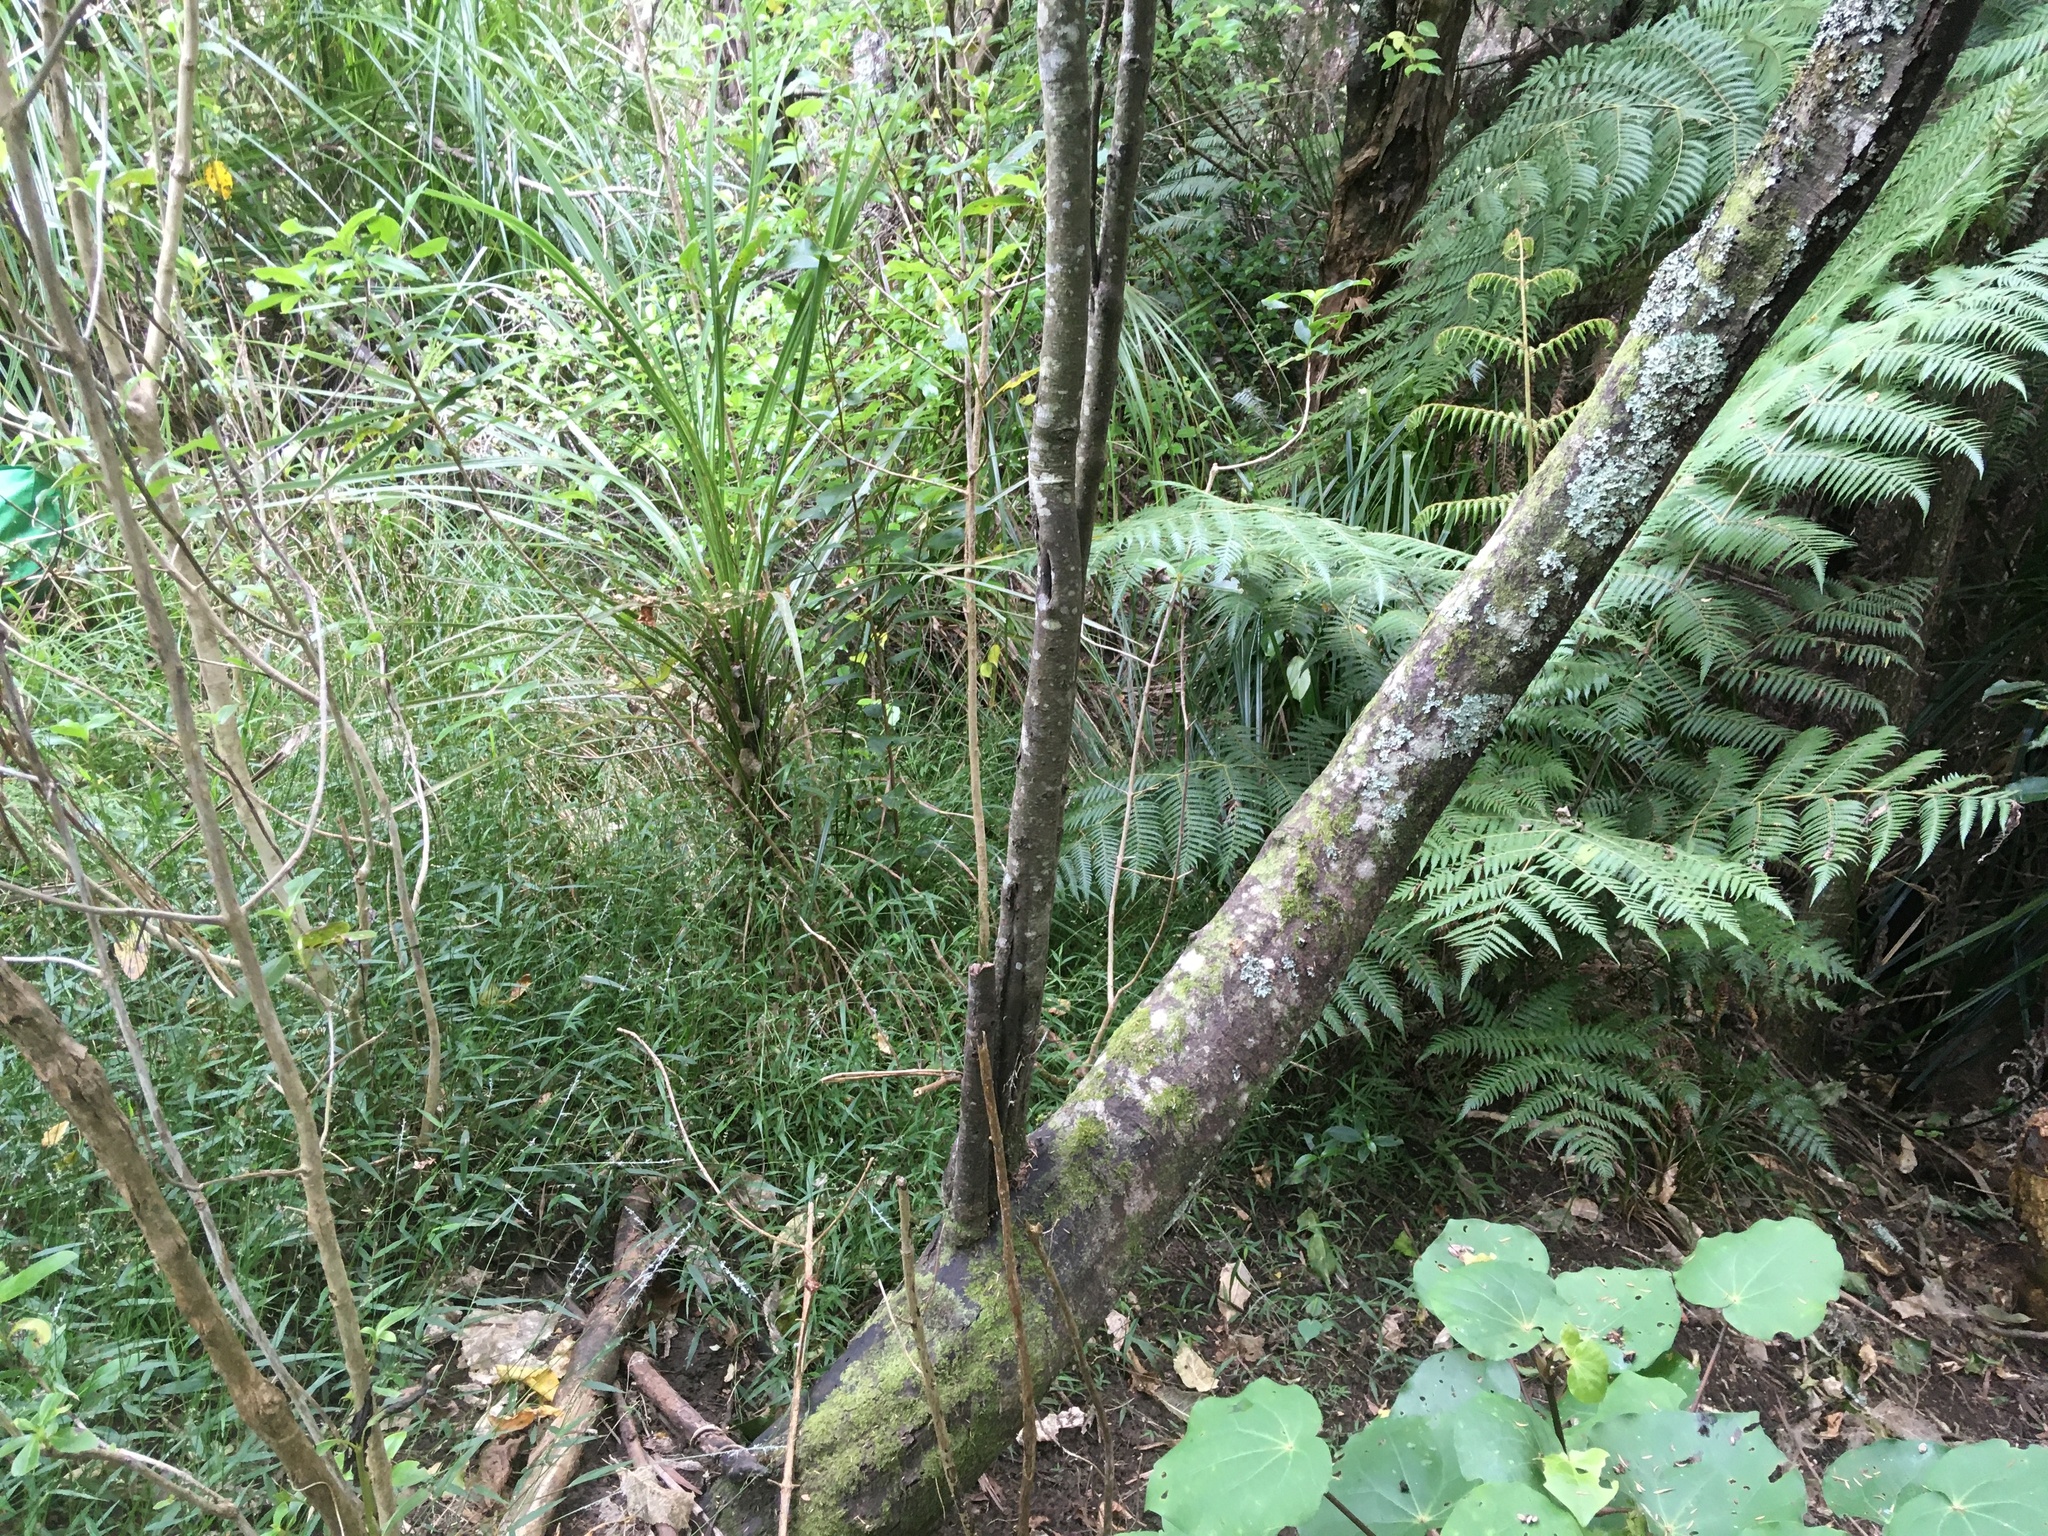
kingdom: Plantae
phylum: Tracheophyta
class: Liliopsida
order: Poales
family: Poaceae
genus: Oplismenus
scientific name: Oplismenus hirtellus
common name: Basketgrass
